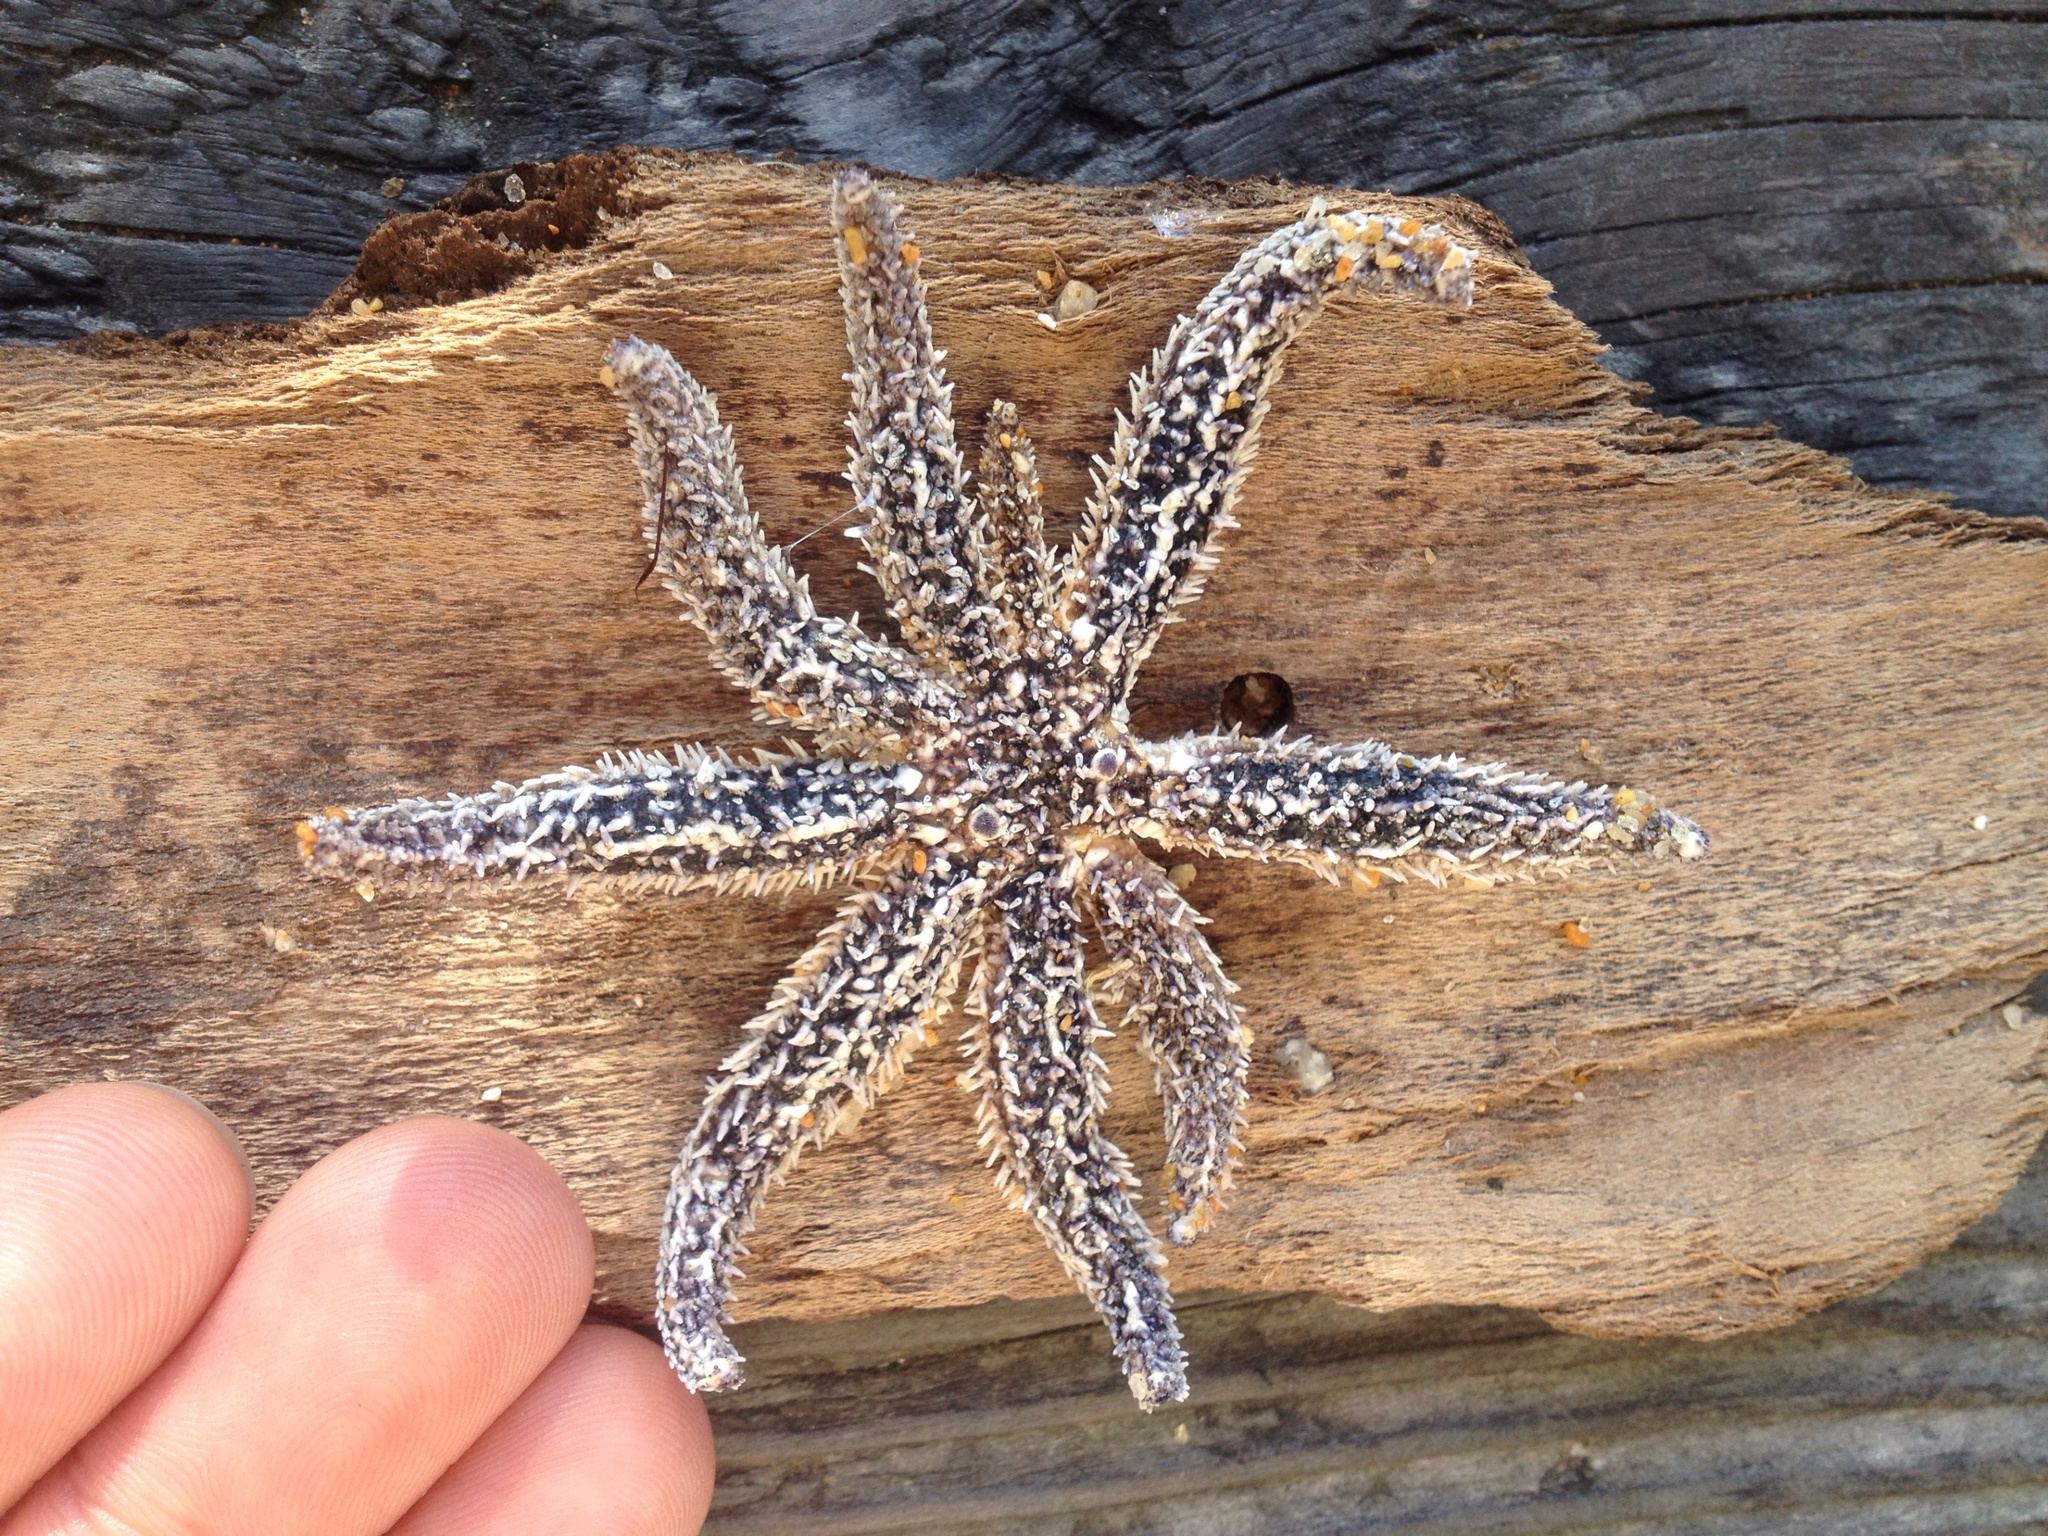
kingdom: Animalia
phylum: Echinodermata
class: Asteroidea
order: Forcipulatida
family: Asteriidae
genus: Coscinasterias
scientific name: Coscinasterias muricata
